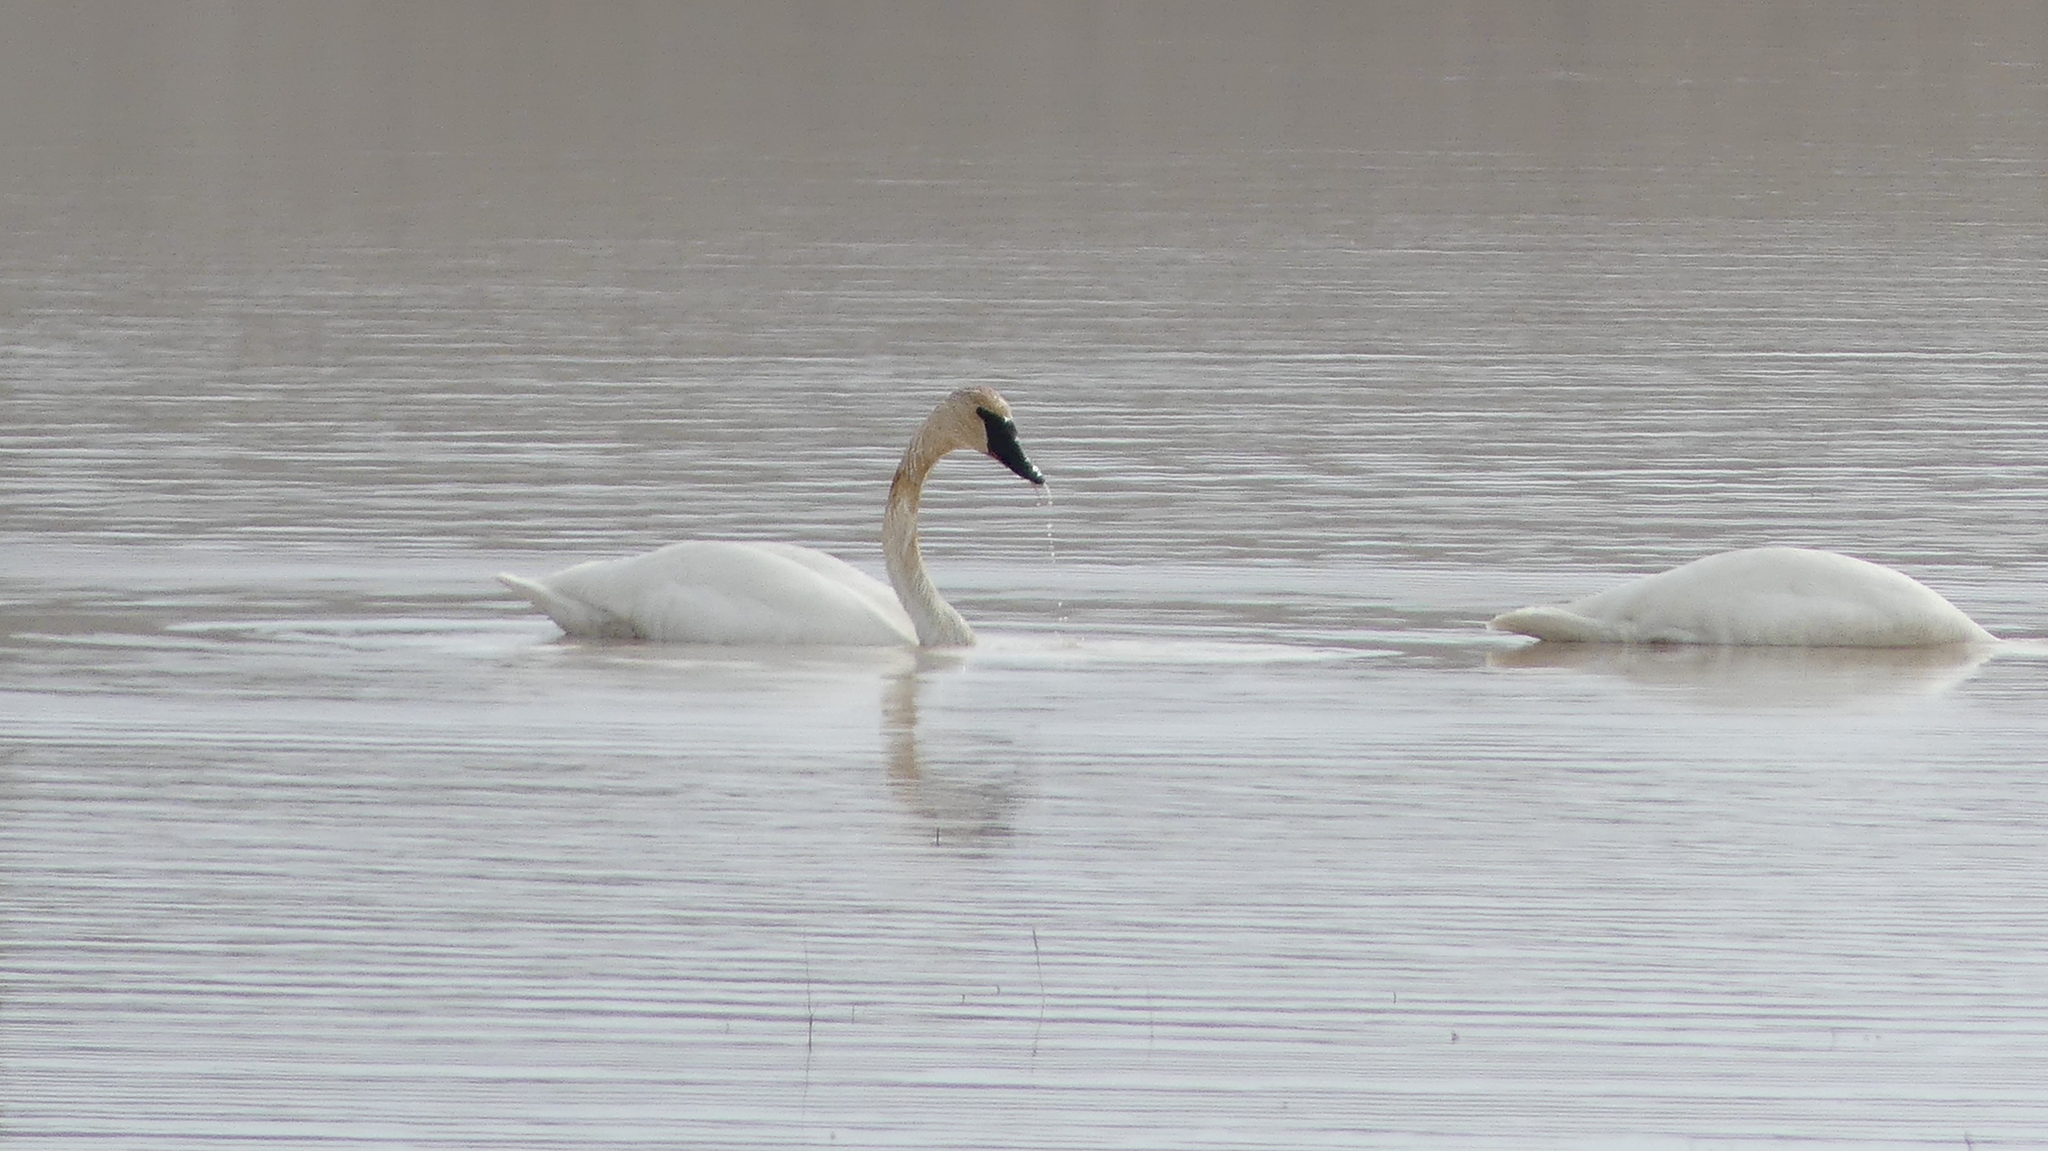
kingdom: Animalia
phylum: Chordata
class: Aves
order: Anseriformes
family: Anatidae
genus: Cygnus
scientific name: Cygnus buccinator
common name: Trumpeter swan
